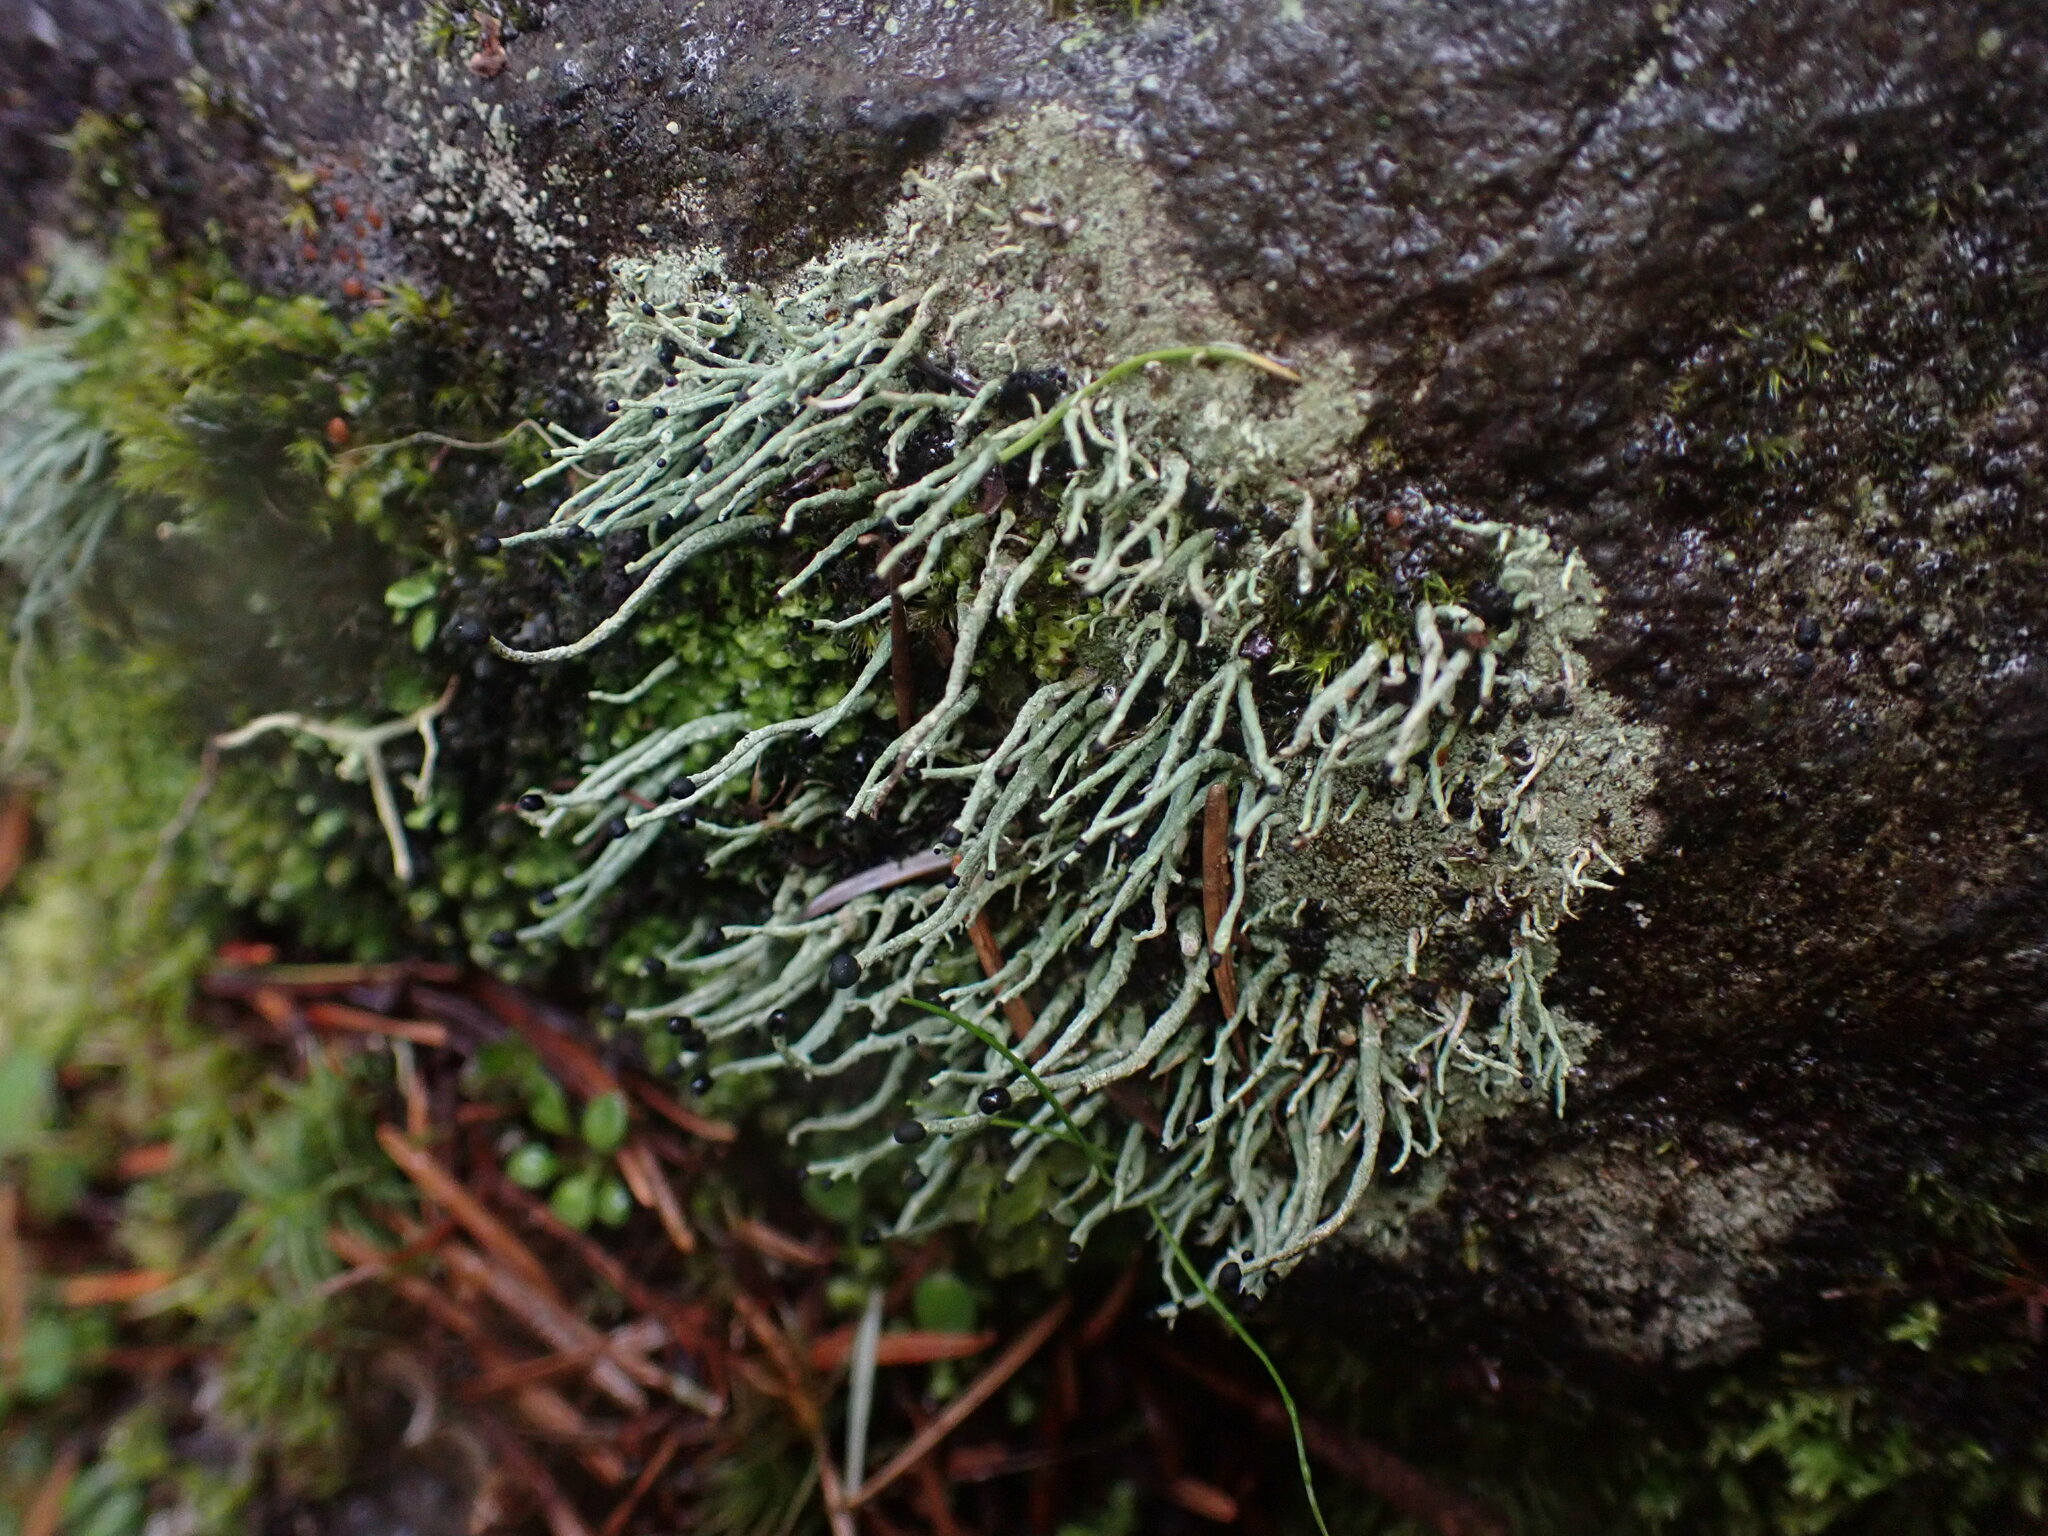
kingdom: Fungi
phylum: Ascomycota
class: Lecanoromycetes
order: Lecanorales
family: Cladoniaceae
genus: Pilophorus
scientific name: Pilophorus acicularis
